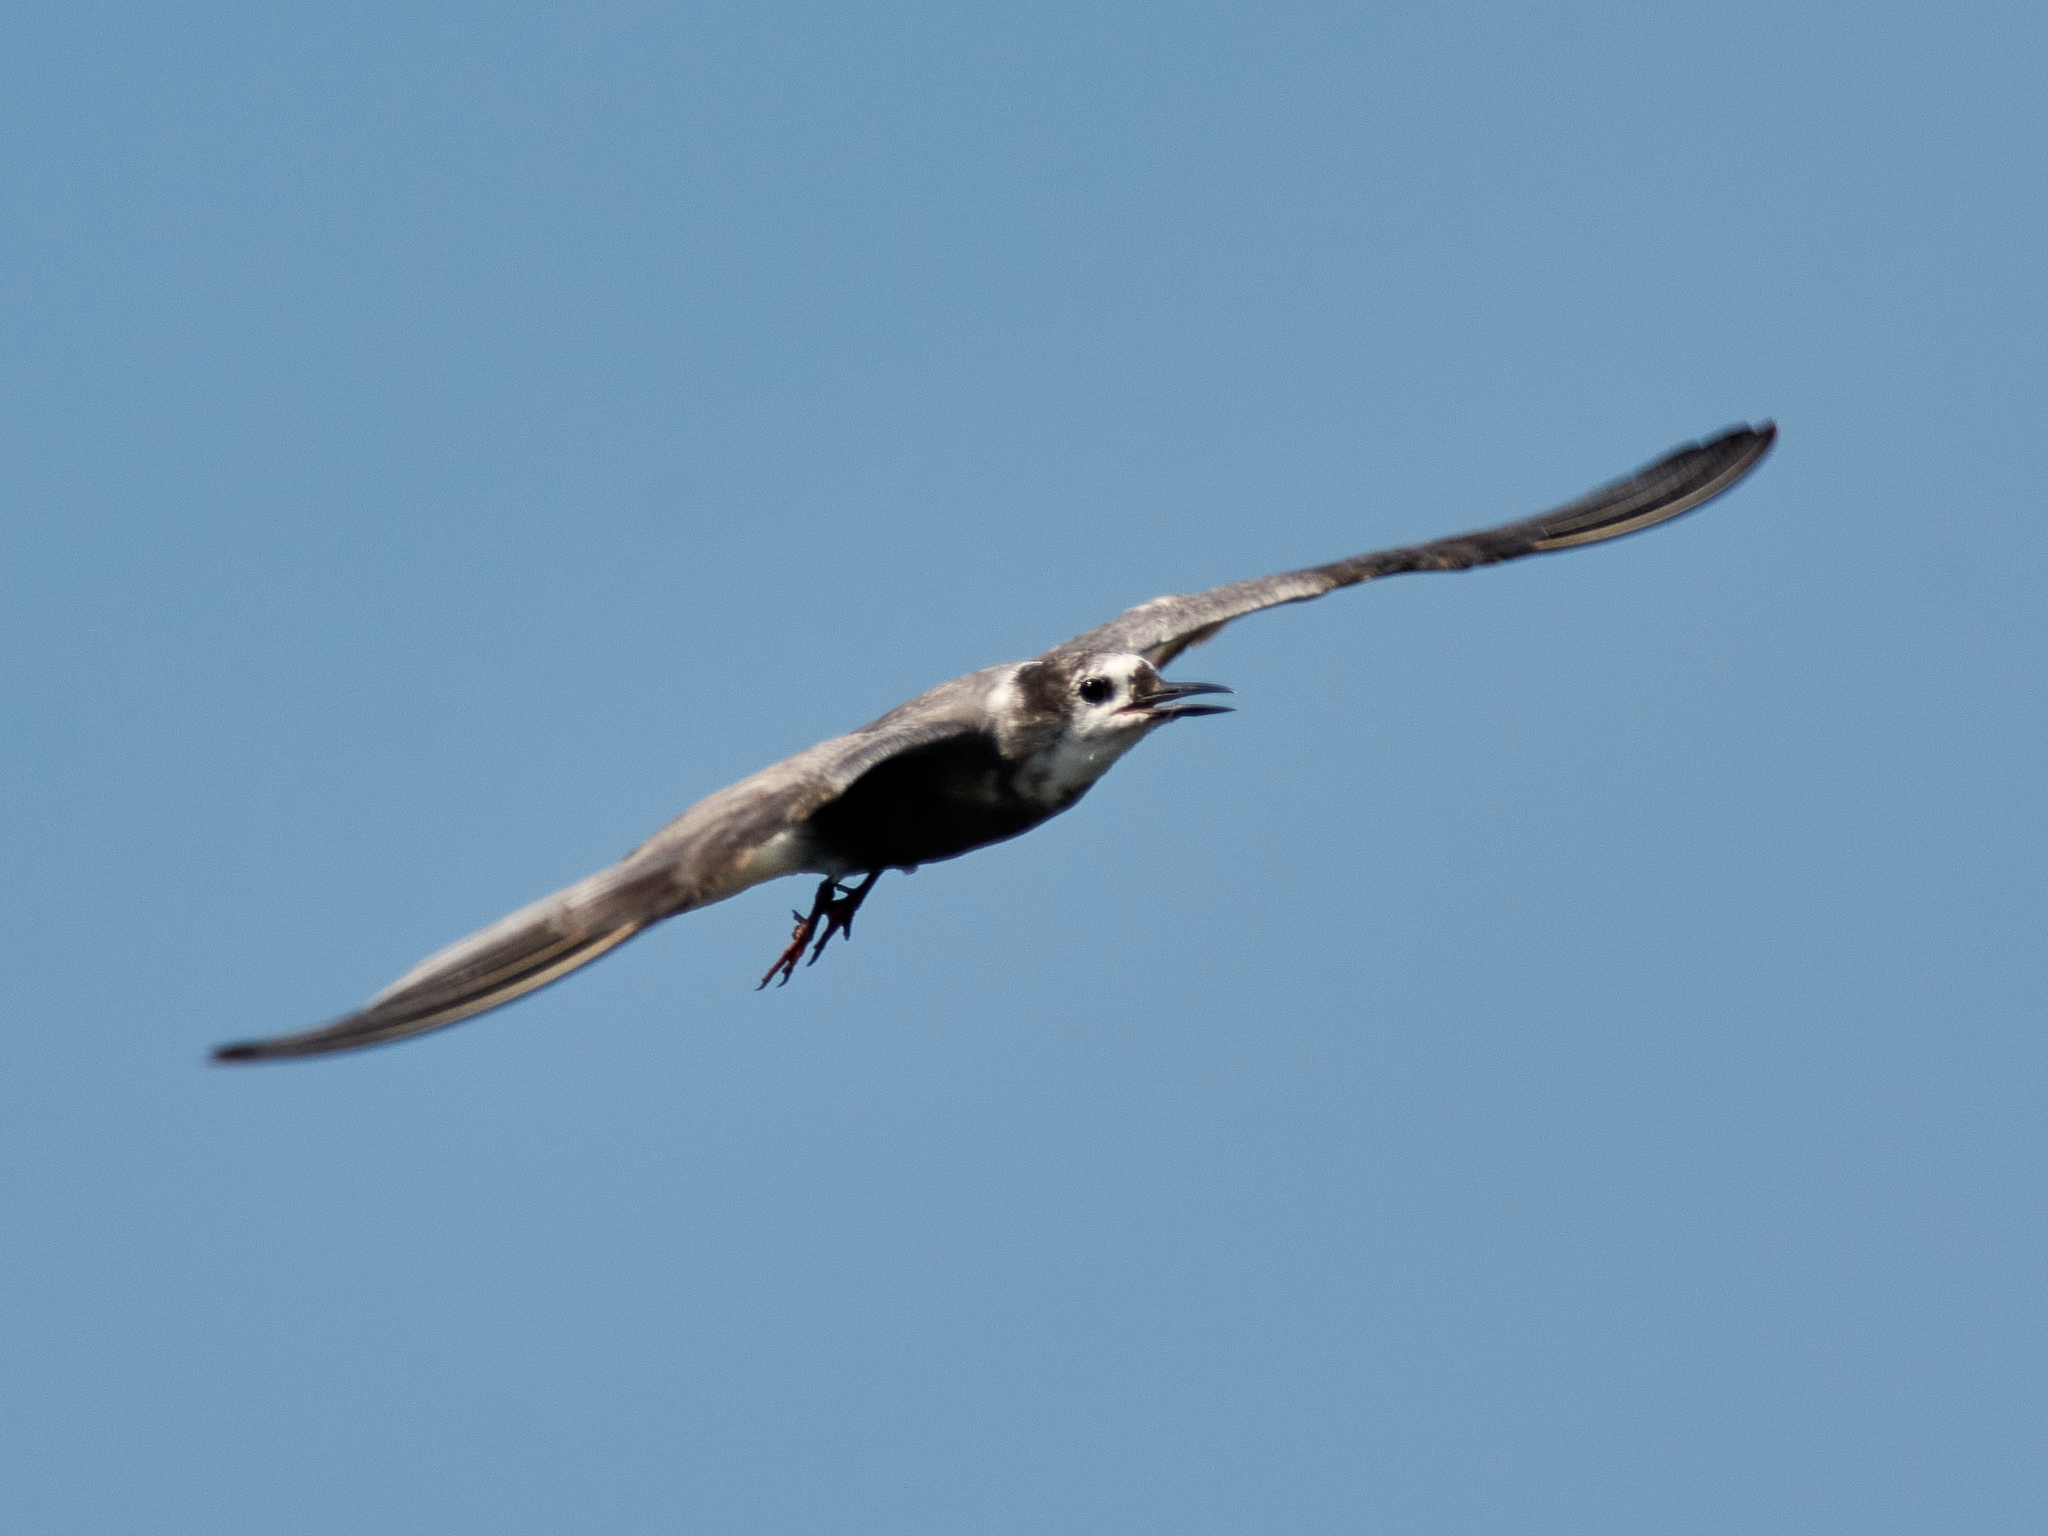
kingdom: Animalia
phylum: Chordata
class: Aves
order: Charadriiformes
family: Laridae
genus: Chlidonias
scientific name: Chlidonias niger
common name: Black tern
